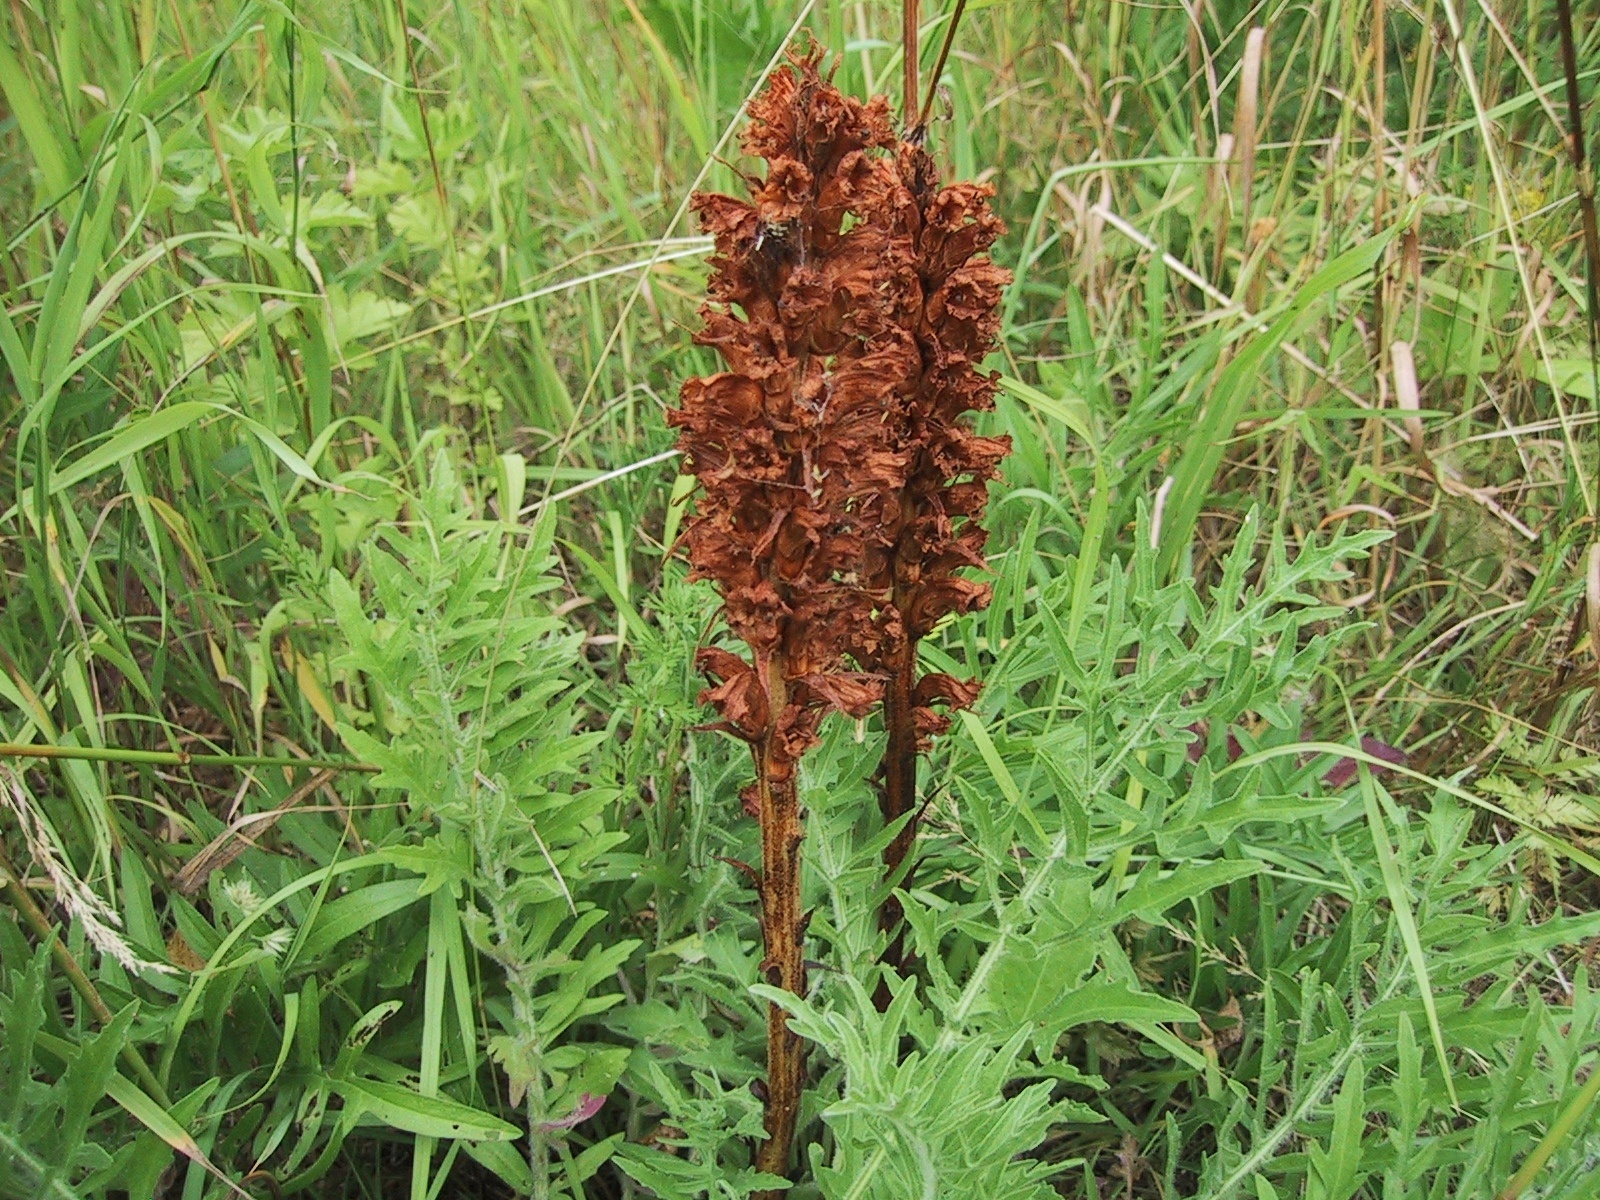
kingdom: Plantae
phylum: Tracheophyta
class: Magnoliopsida
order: Lamiales
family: Orobanchaceae
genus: Orobanche
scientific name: Orobanche elatior
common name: Knapweed broomrape
